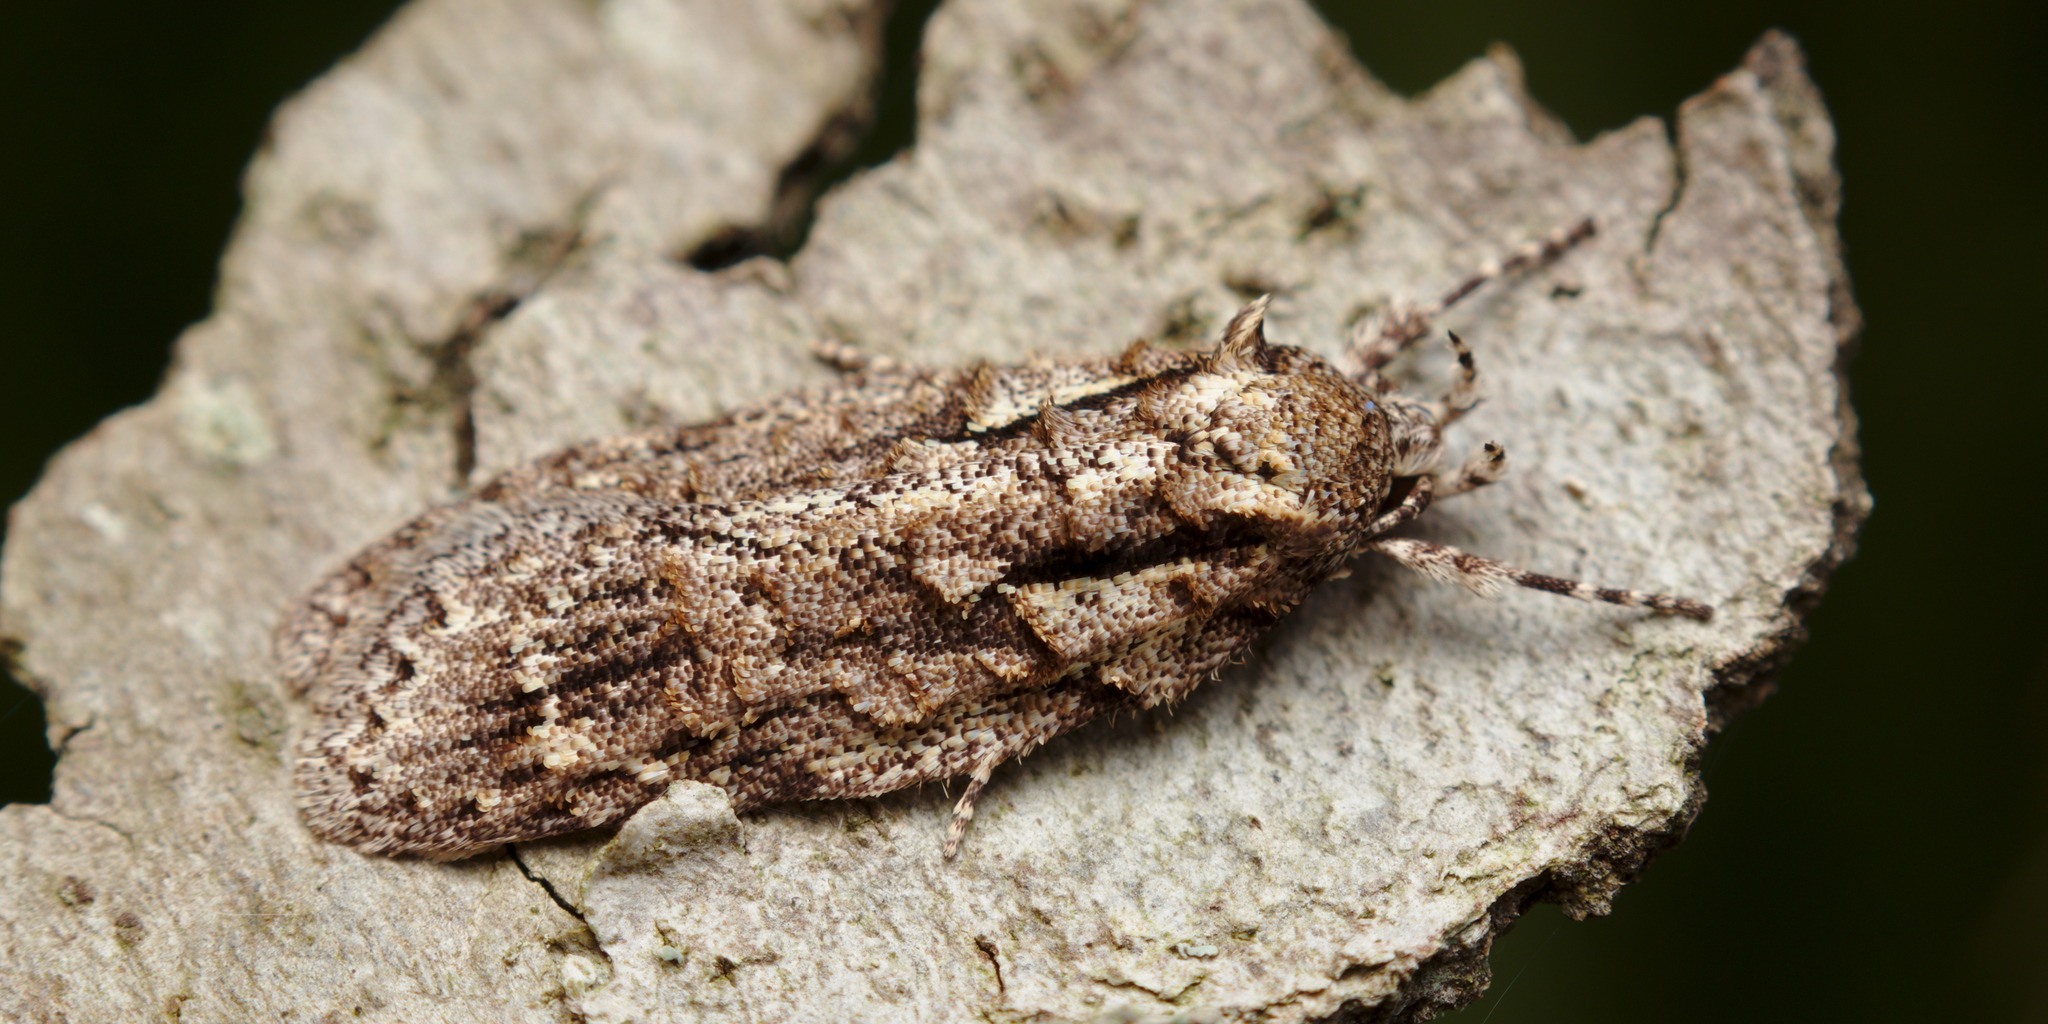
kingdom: Animalia
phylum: Arthropoda
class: Insecta
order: Lepidoptera
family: Oecophoridae
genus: Izatha
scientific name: Izatha attactella
